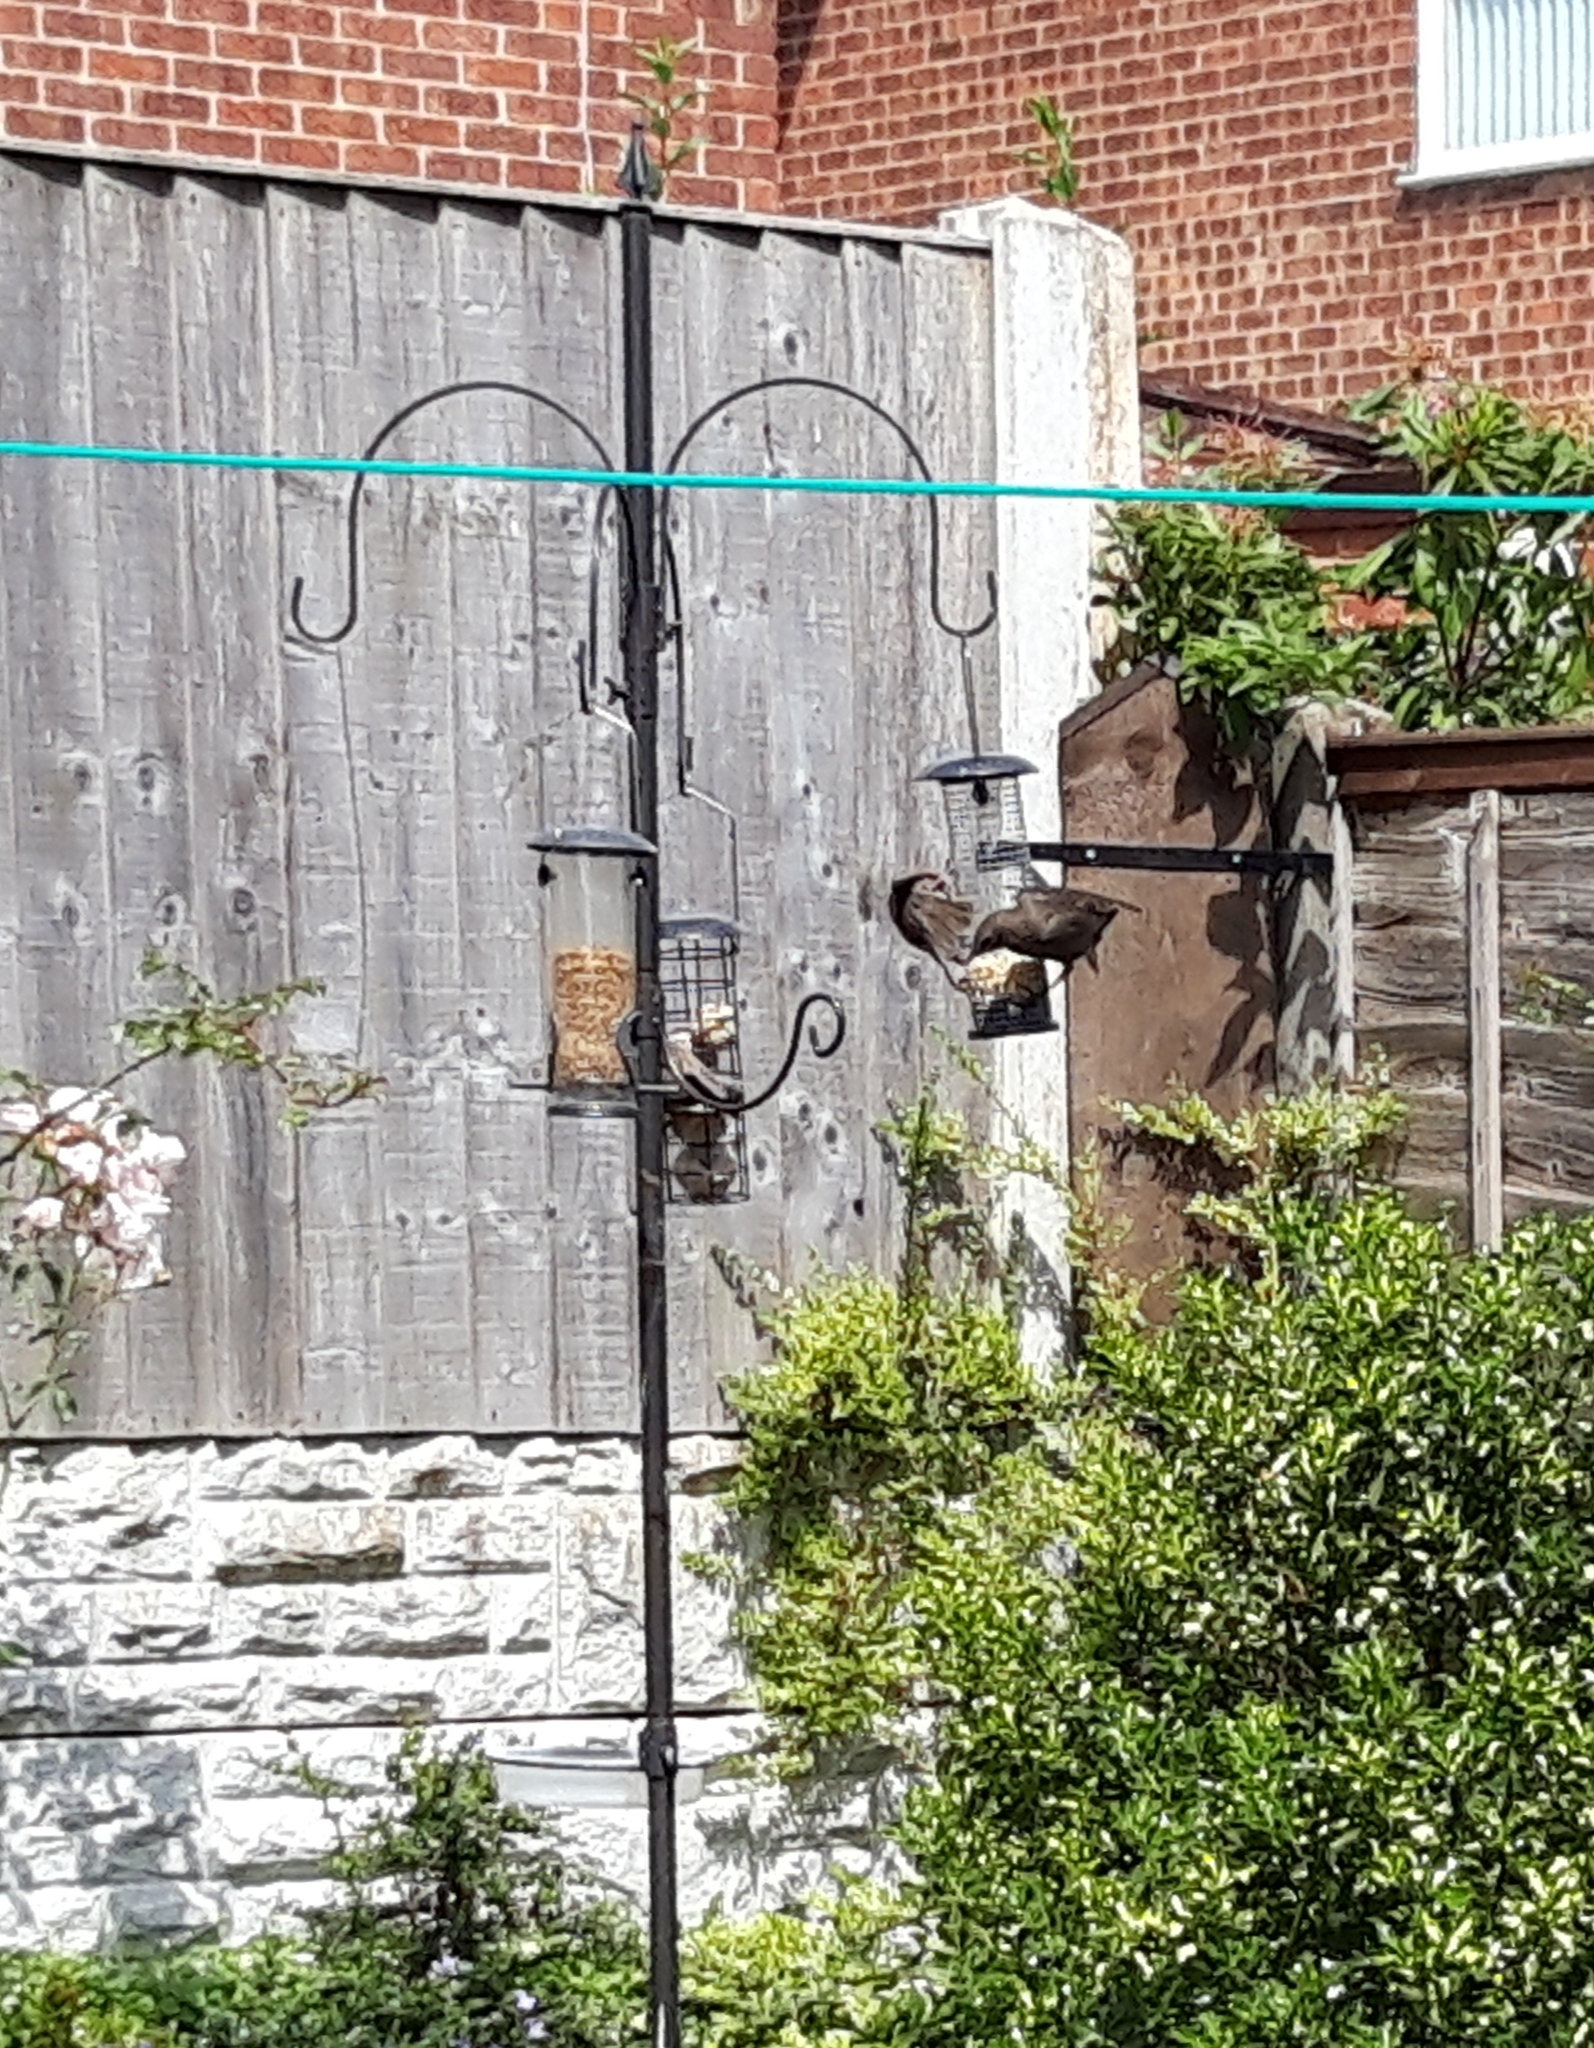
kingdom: Animalia
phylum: Chordata
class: Aves
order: Passeriformes
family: Sturnidae
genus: Sturnus
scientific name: Sturnus vulgaris
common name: Common starling
